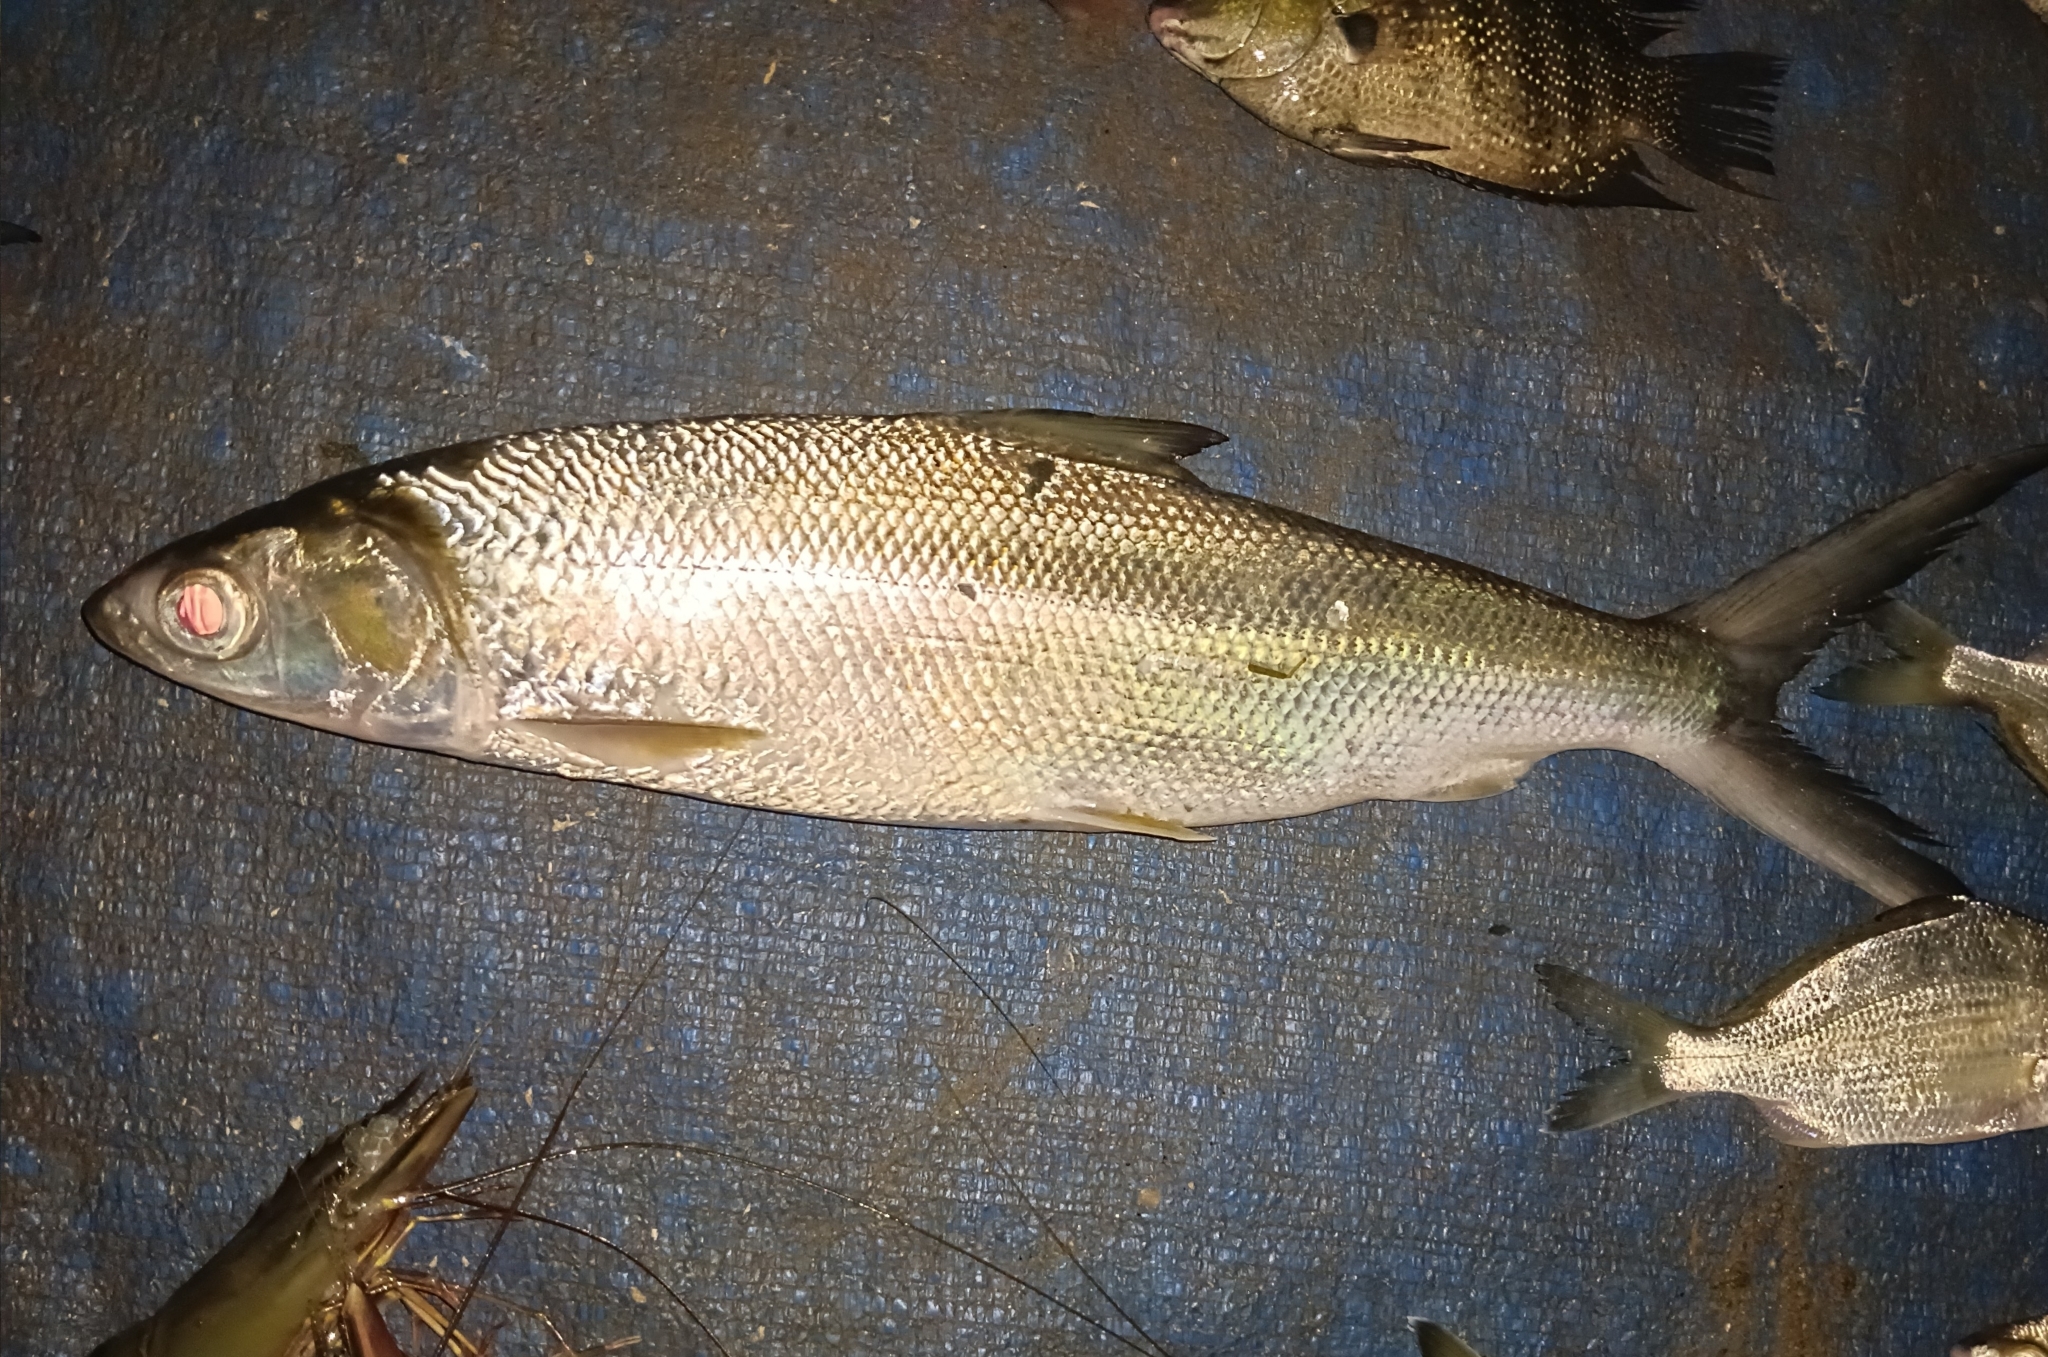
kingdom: Animalia
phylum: Chordata
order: Gonorynchiformes
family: Chanidae
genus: Chanos
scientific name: Chanos chanos
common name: Milkfish
